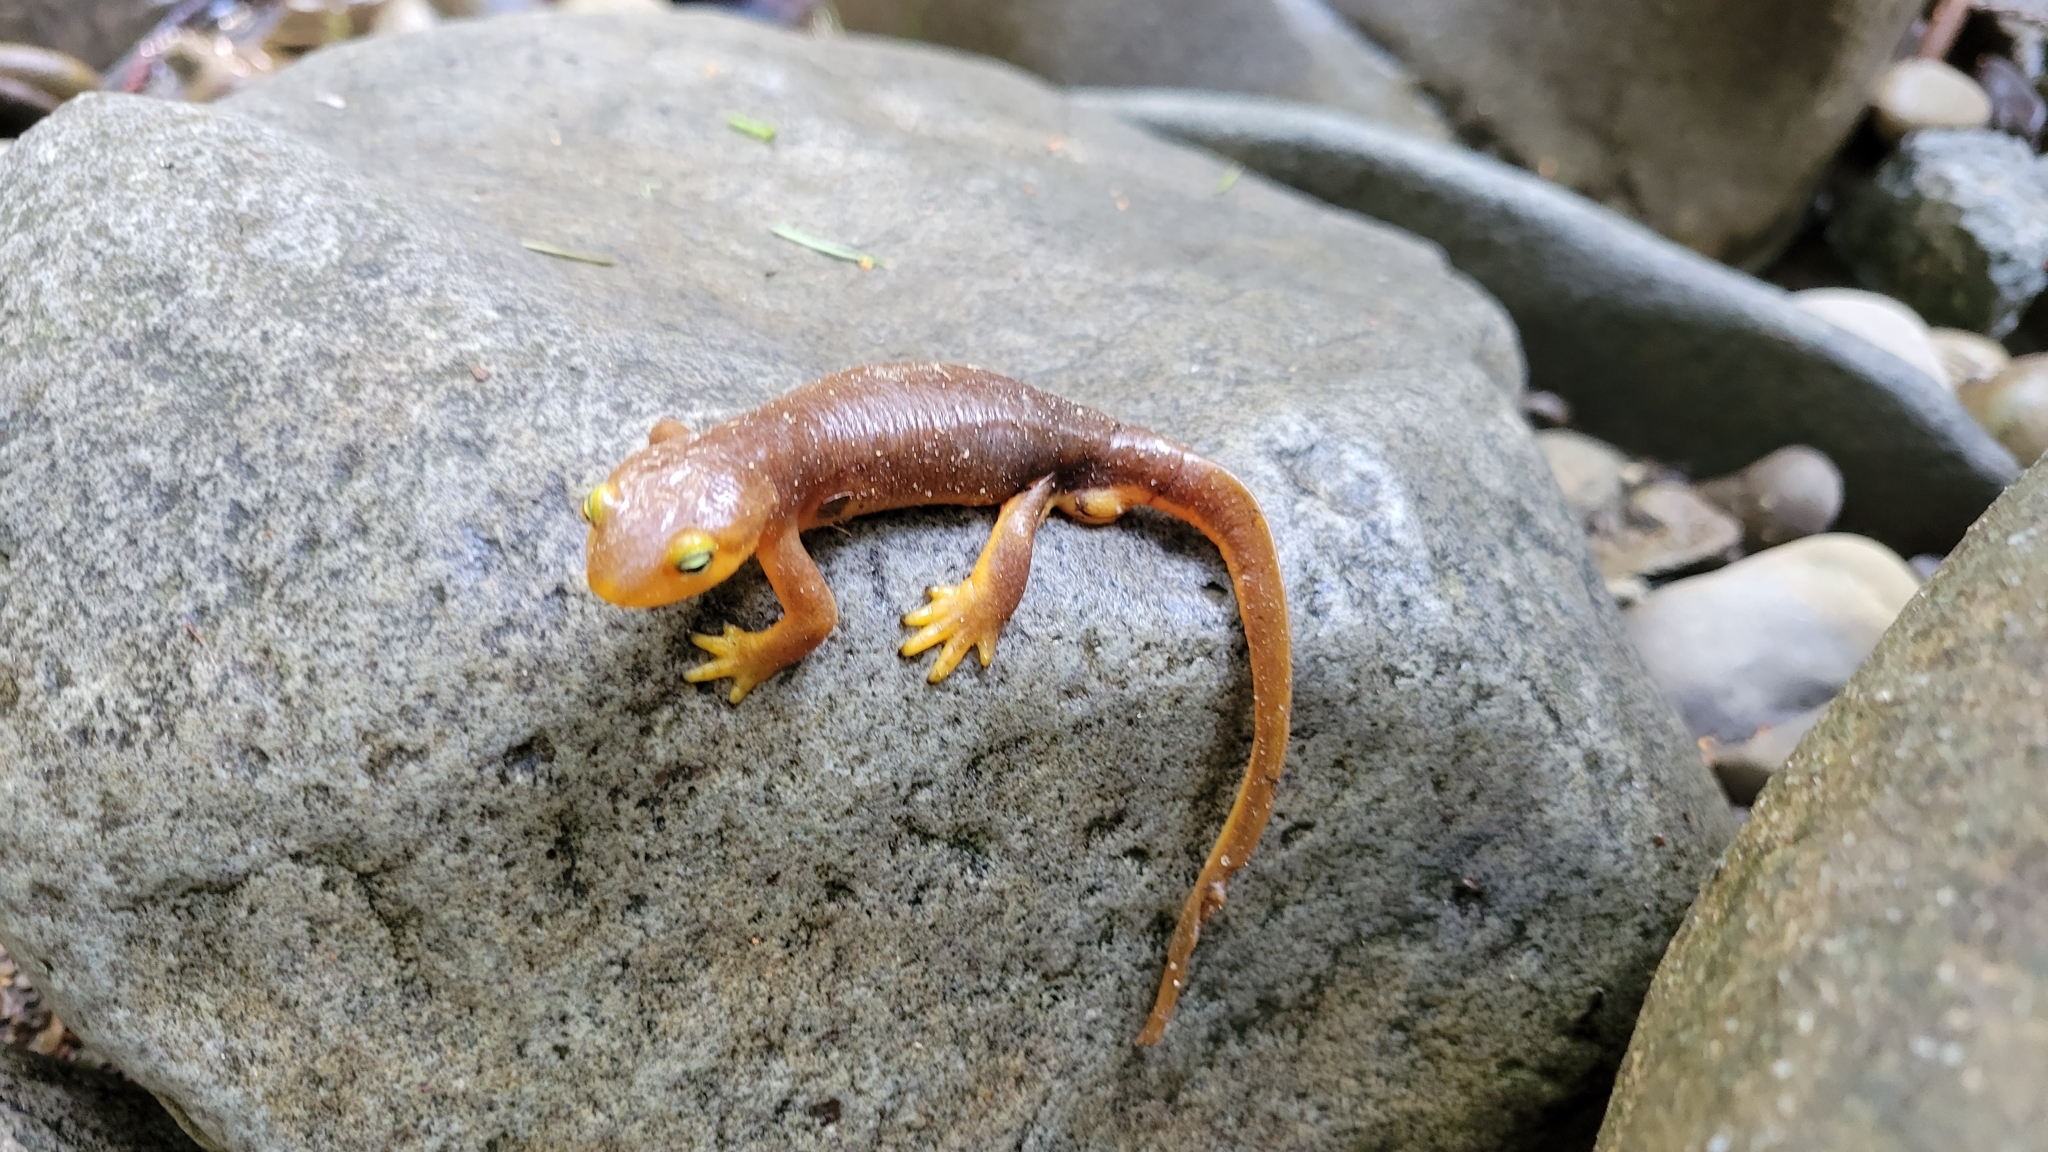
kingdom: Animalia
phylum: Chordata
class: Amphibia
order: Caudata
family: Salamandridae
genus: Taricha
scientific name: Taricha torosa
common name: California newt
